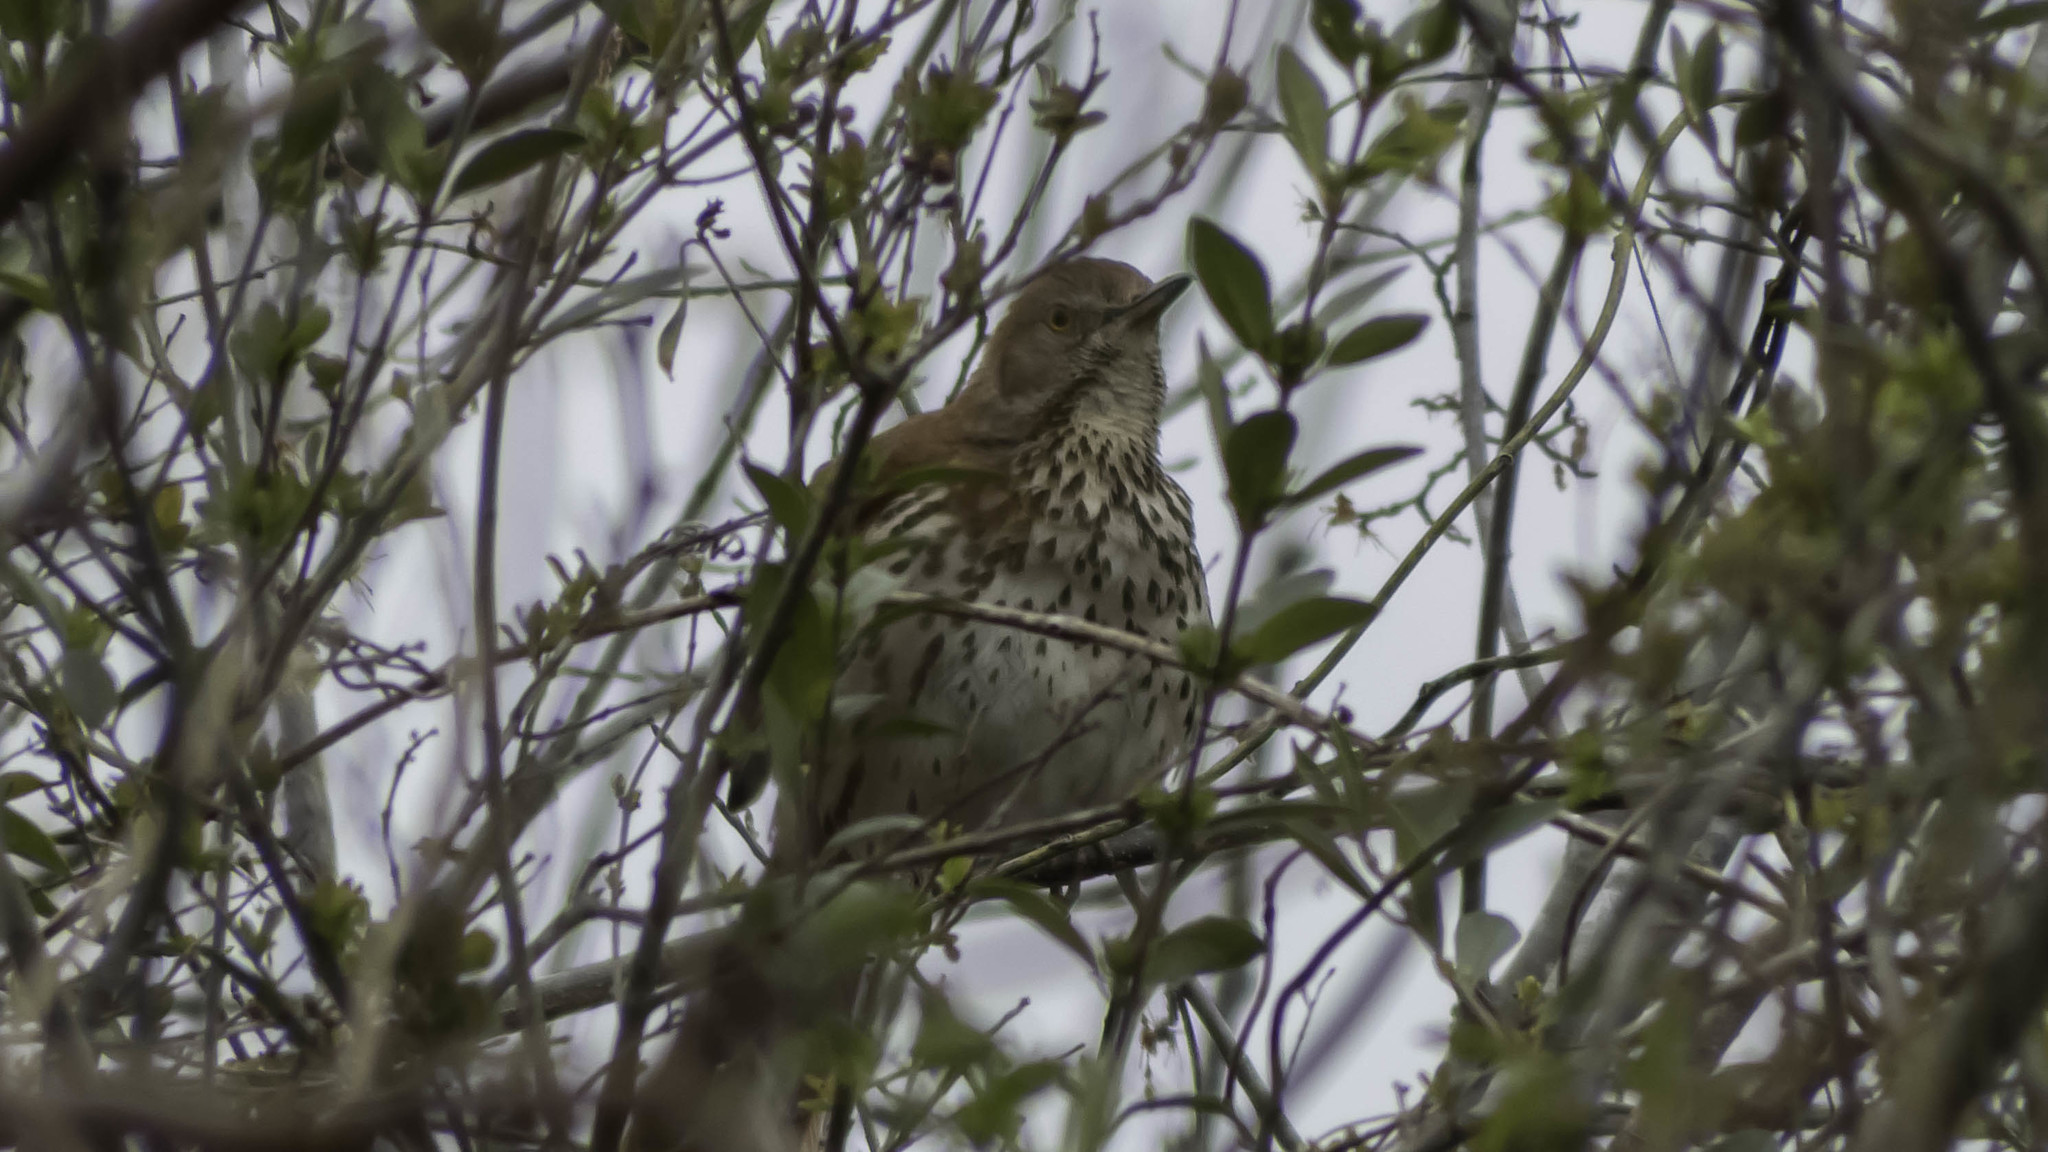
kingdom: Animalia
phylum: Chordata
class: Aves
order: Passeriformes
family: Mimidae
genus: Toxostoma
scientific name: Toxostoma rufum
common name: Brown thrasher
